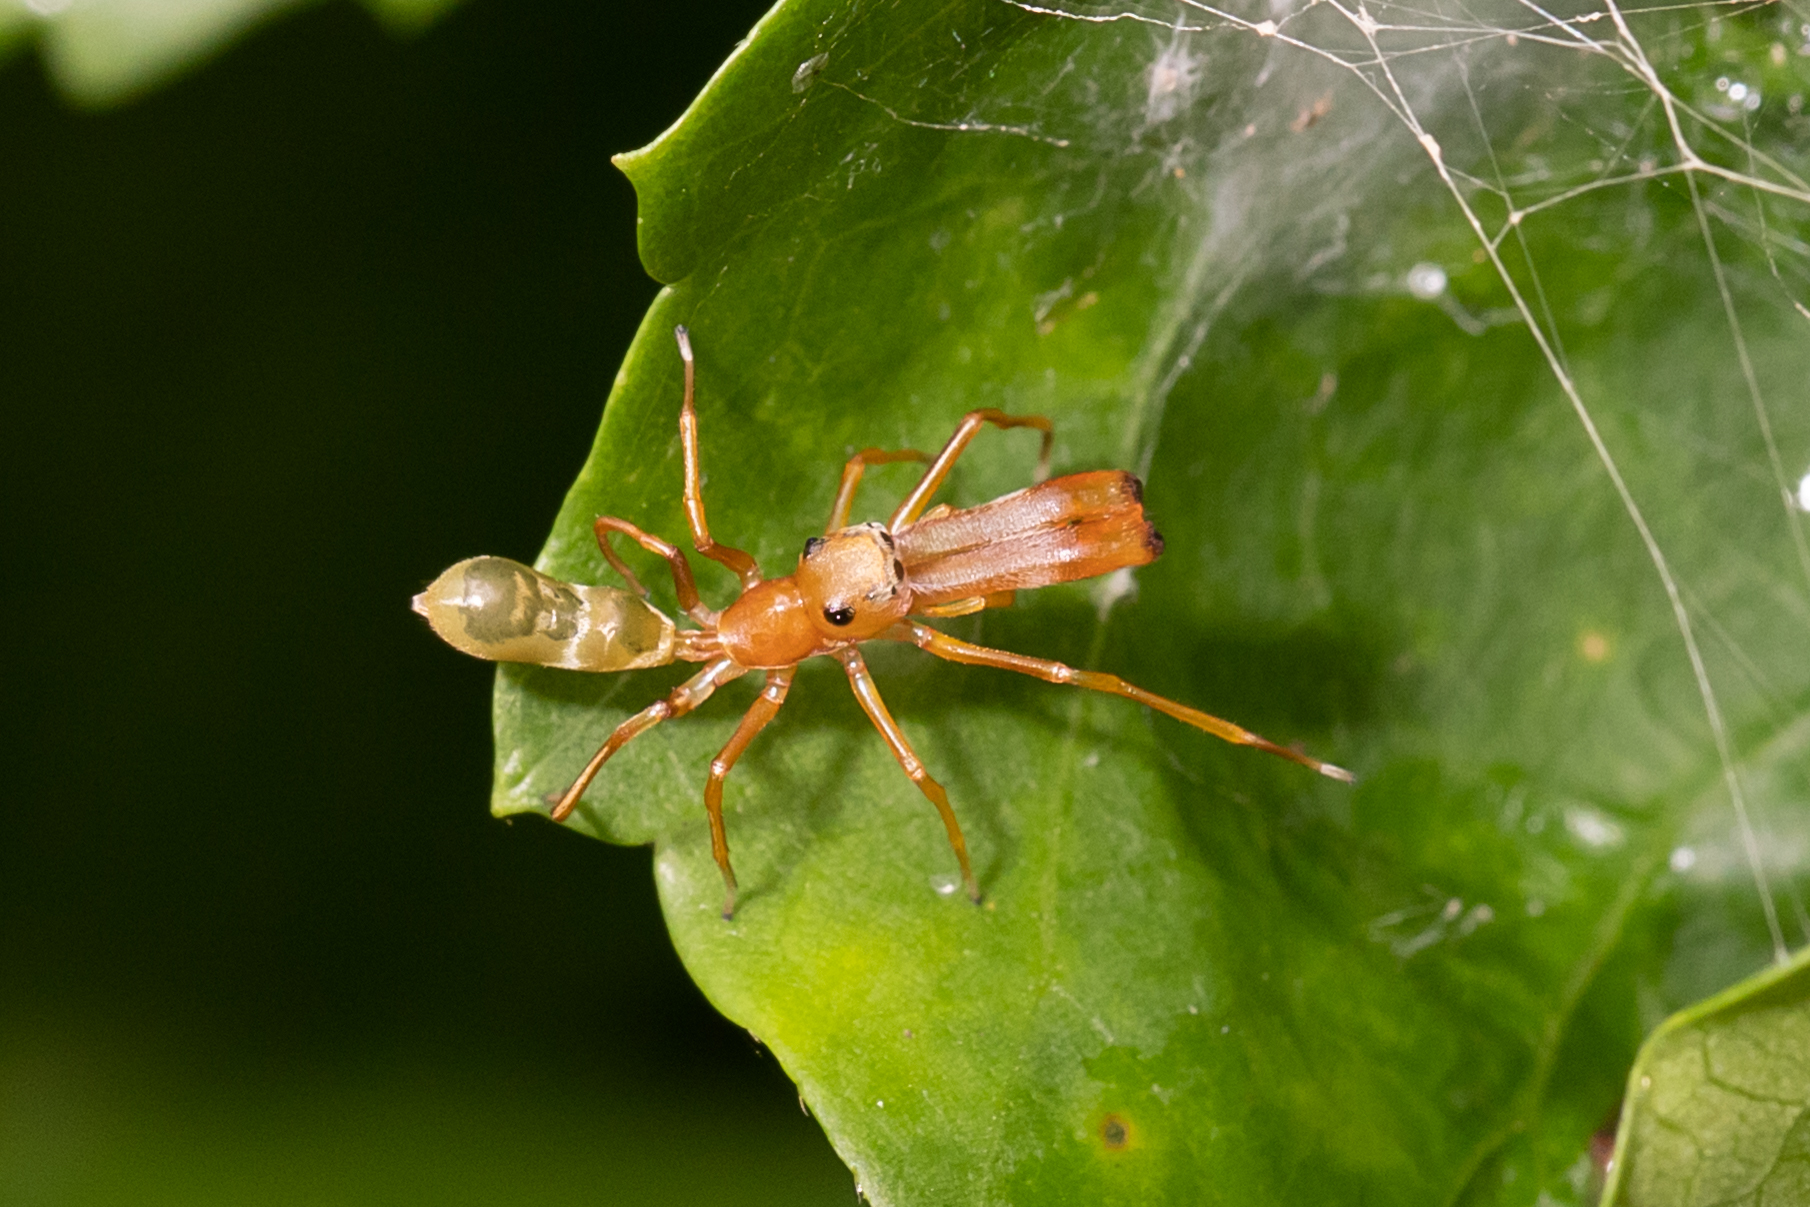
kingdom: Animalia
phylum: Arthropoda
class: Arachnida
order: Araneae
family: Salticidae
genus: Myrmarachne
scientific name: Myrmarachne smaragdina
